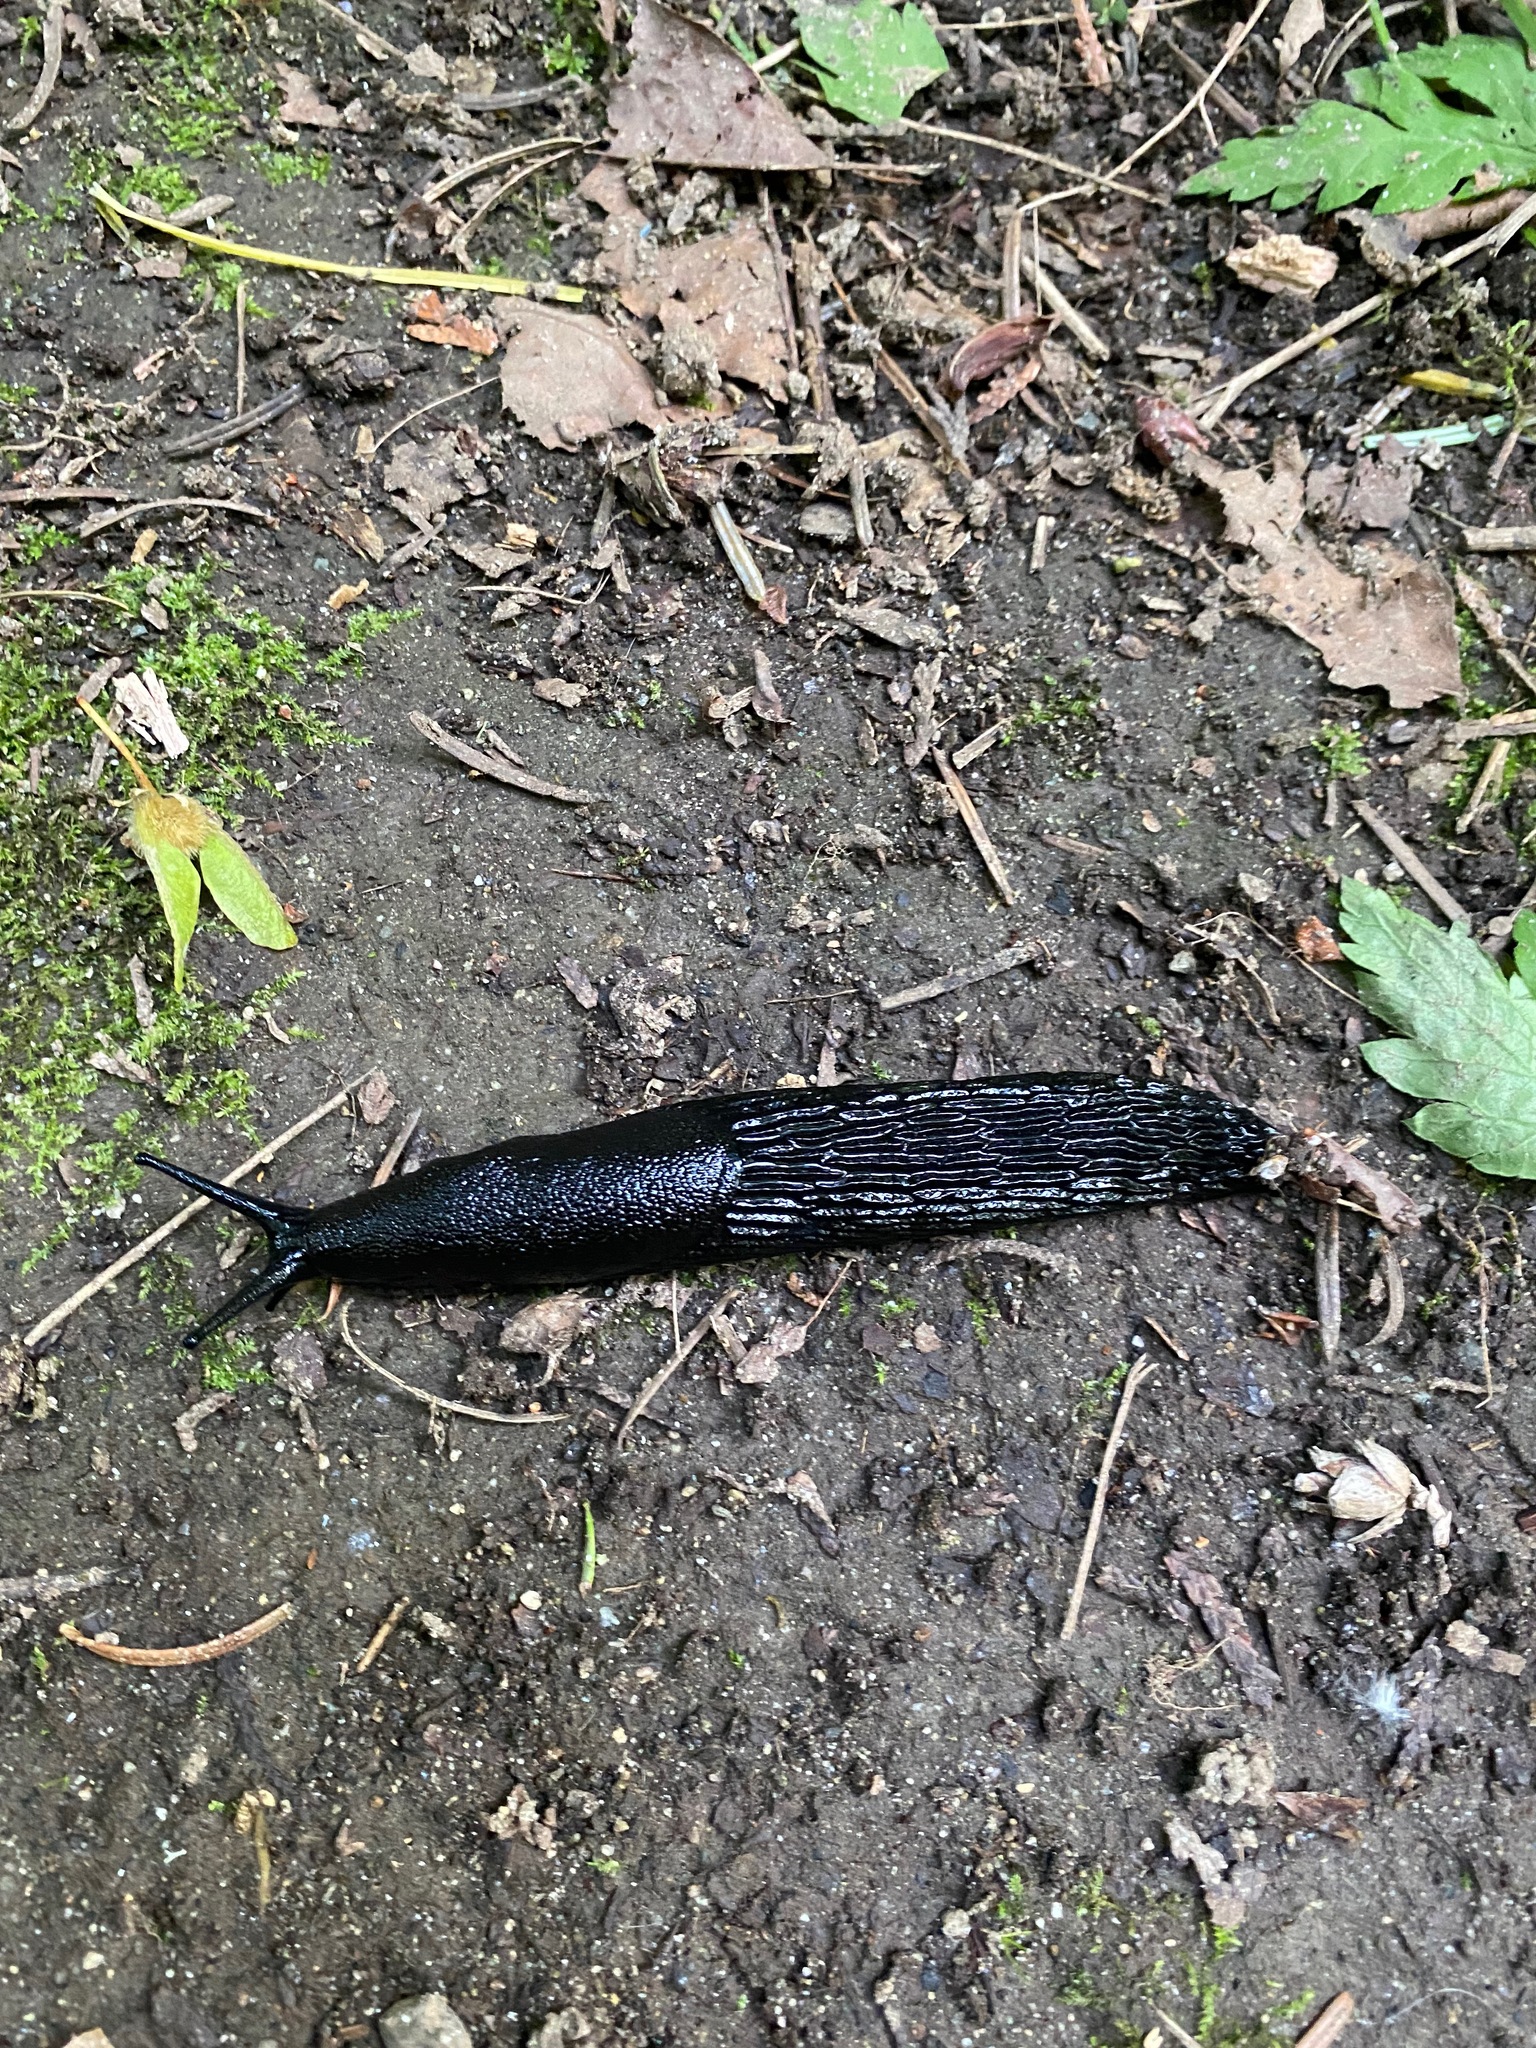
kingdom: Animalia
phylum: Mollusca
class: Gastropoda
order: Stylommatophora
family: Arionidae
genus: Arion
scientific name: Arion
